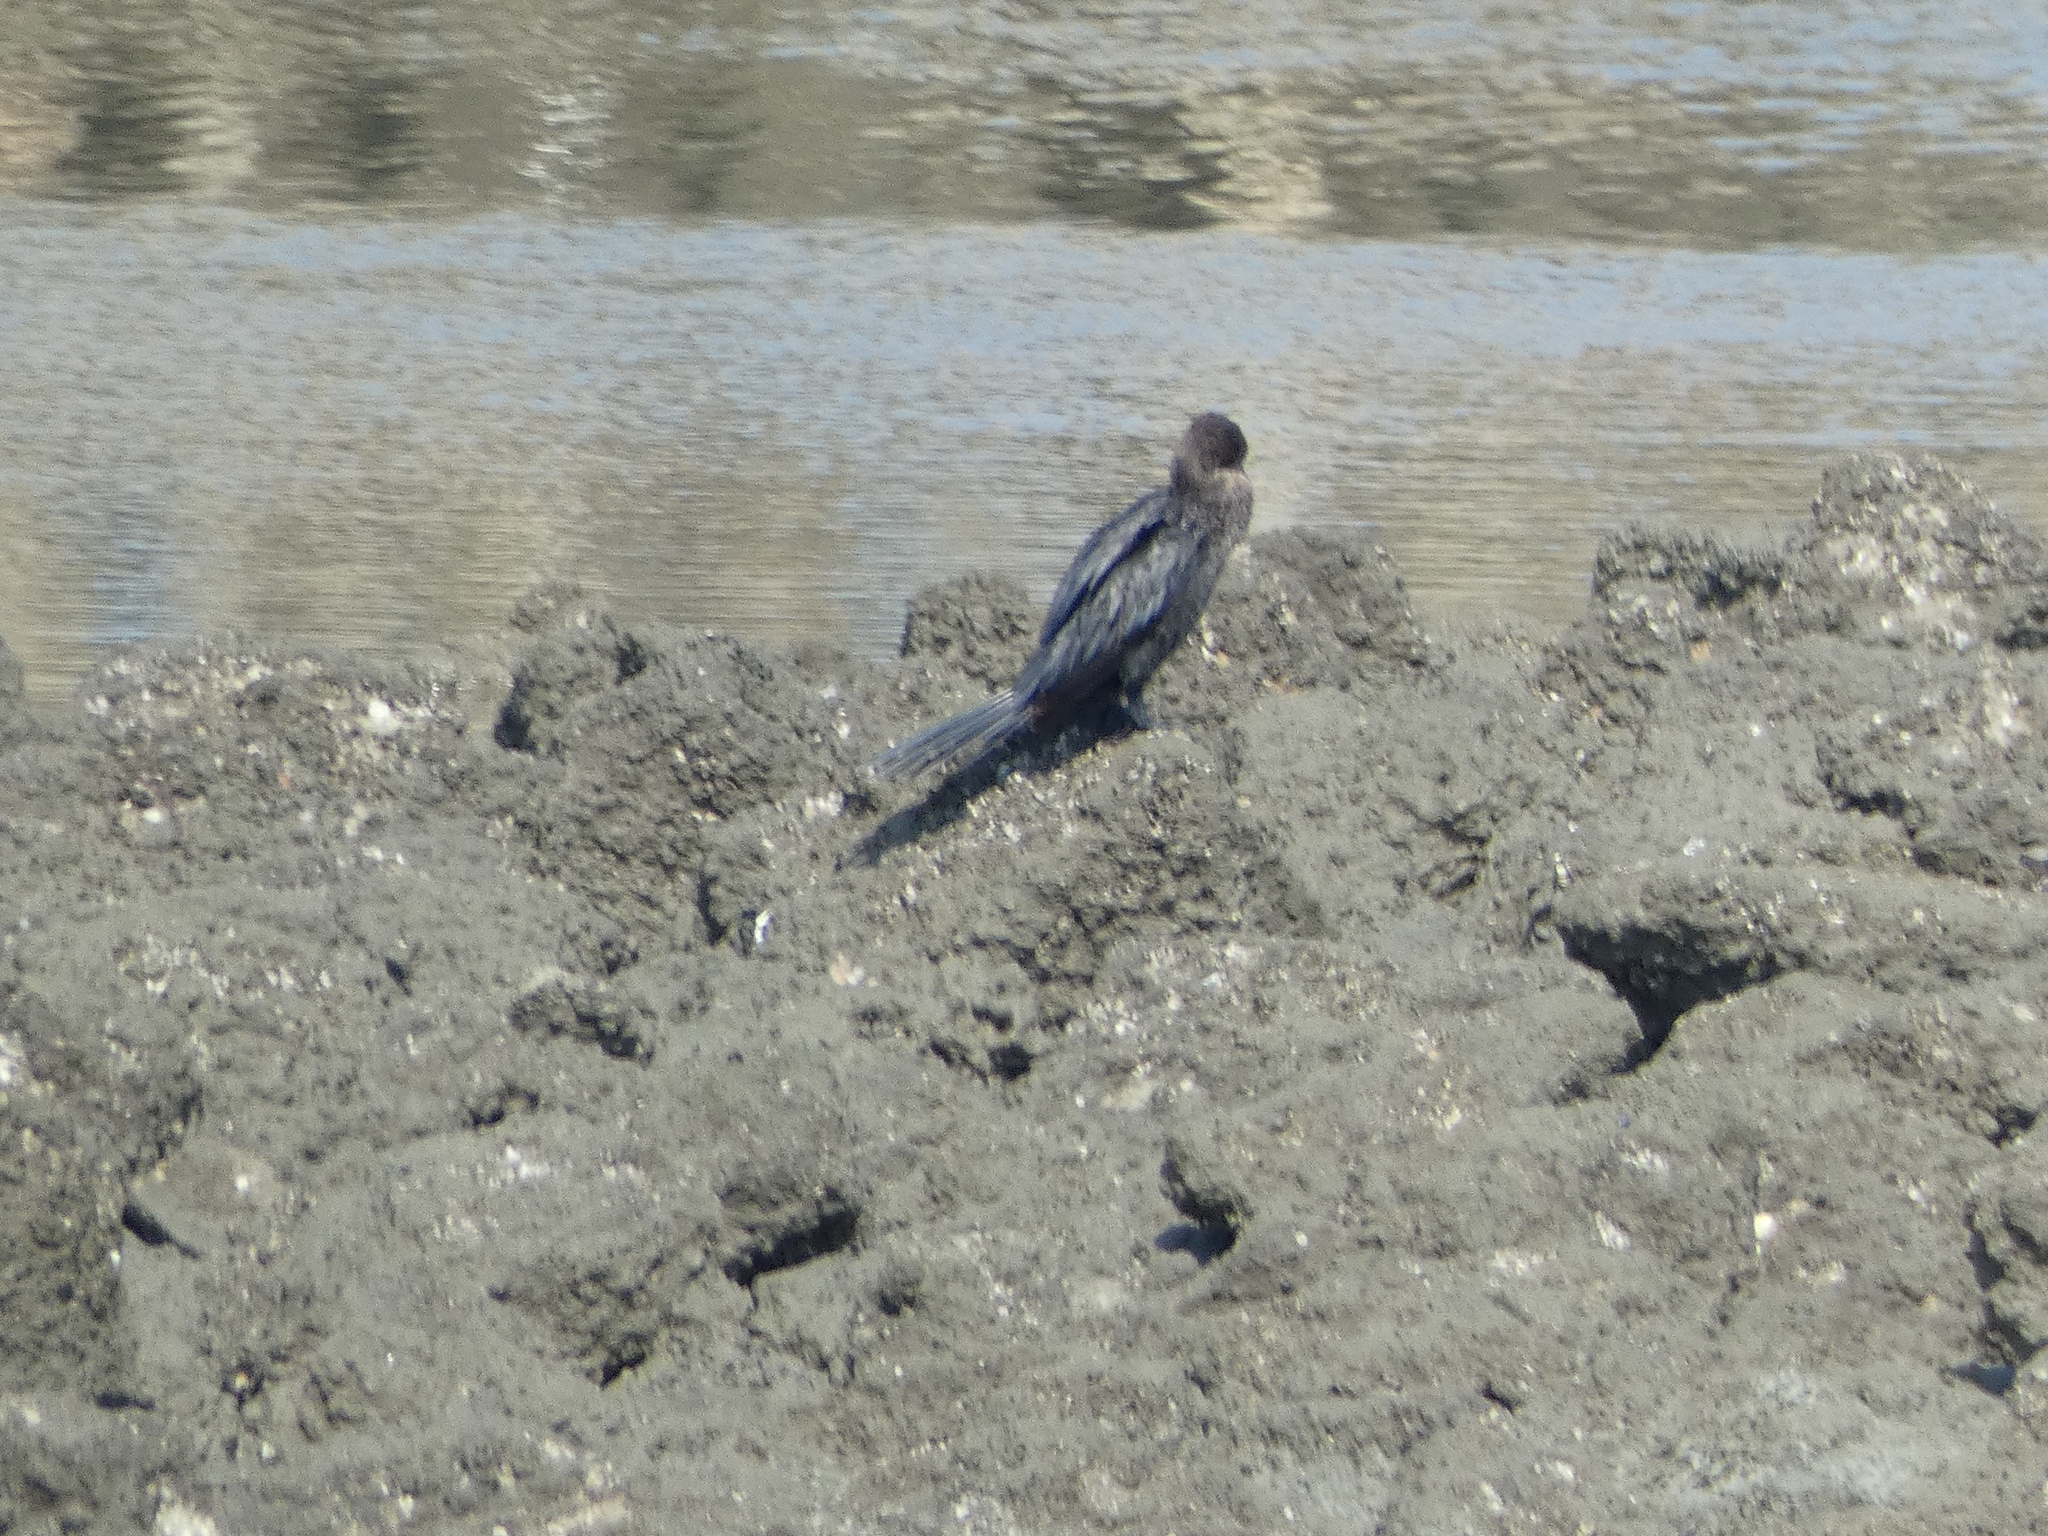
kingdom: Animalia
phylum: Chordata
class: Aves
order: Suliformes
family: Phalacrocoracidae
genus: Microcarbo
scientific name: Microcarbo niger
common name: Little cormorant
